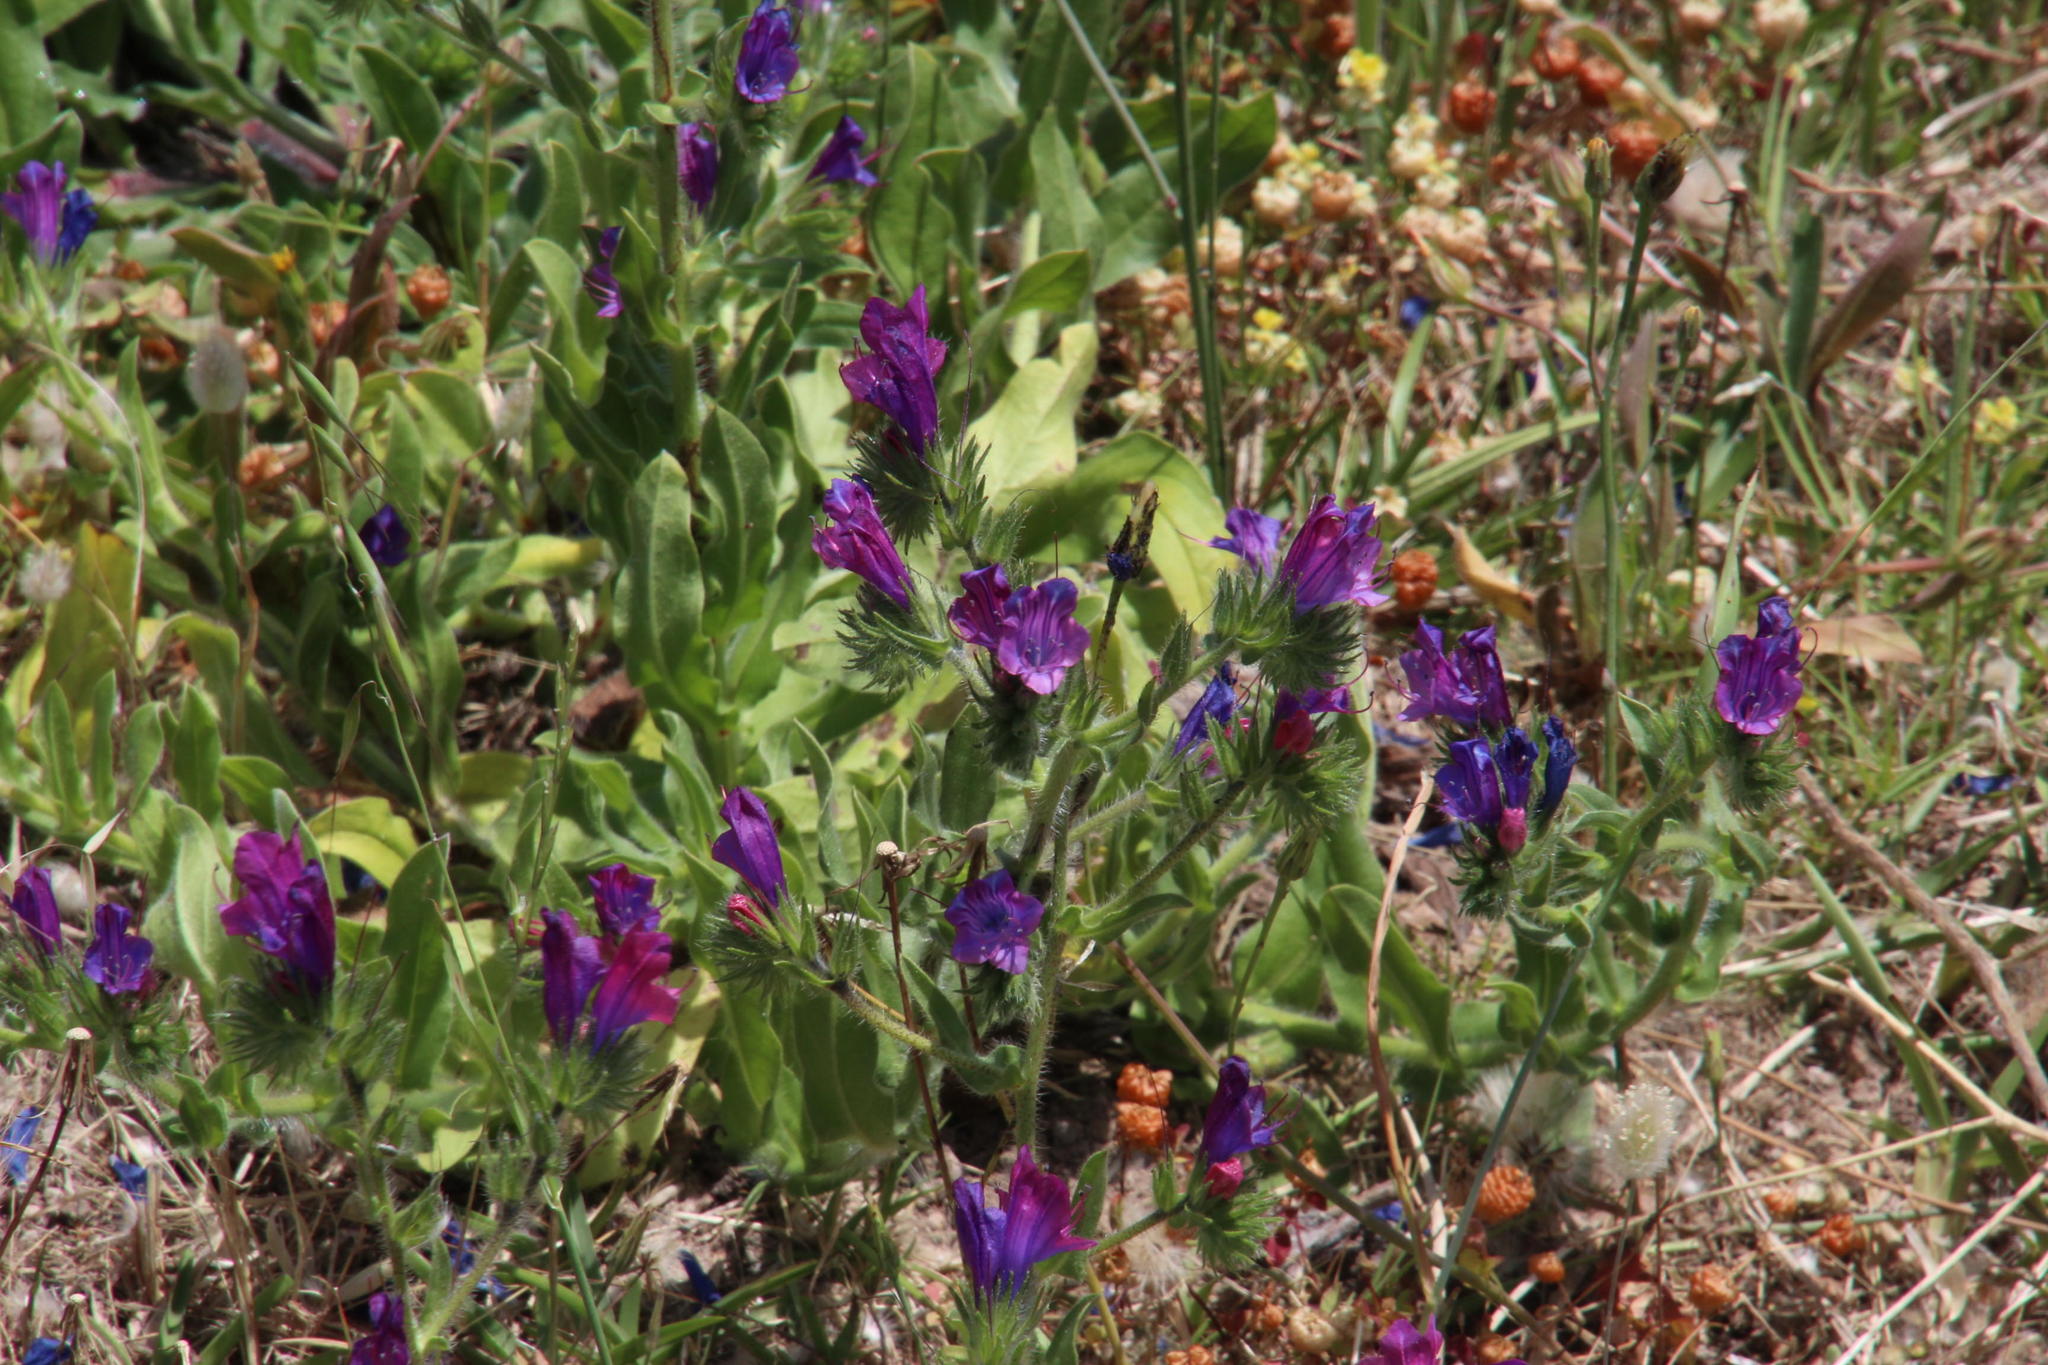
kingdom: Plantae
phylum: Tracheophyta
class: Magnoliopsida
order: Boraginales
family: Boraginaceae
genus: Echium
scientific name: Echium plantagineum
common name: Purple viper's-bugloss
